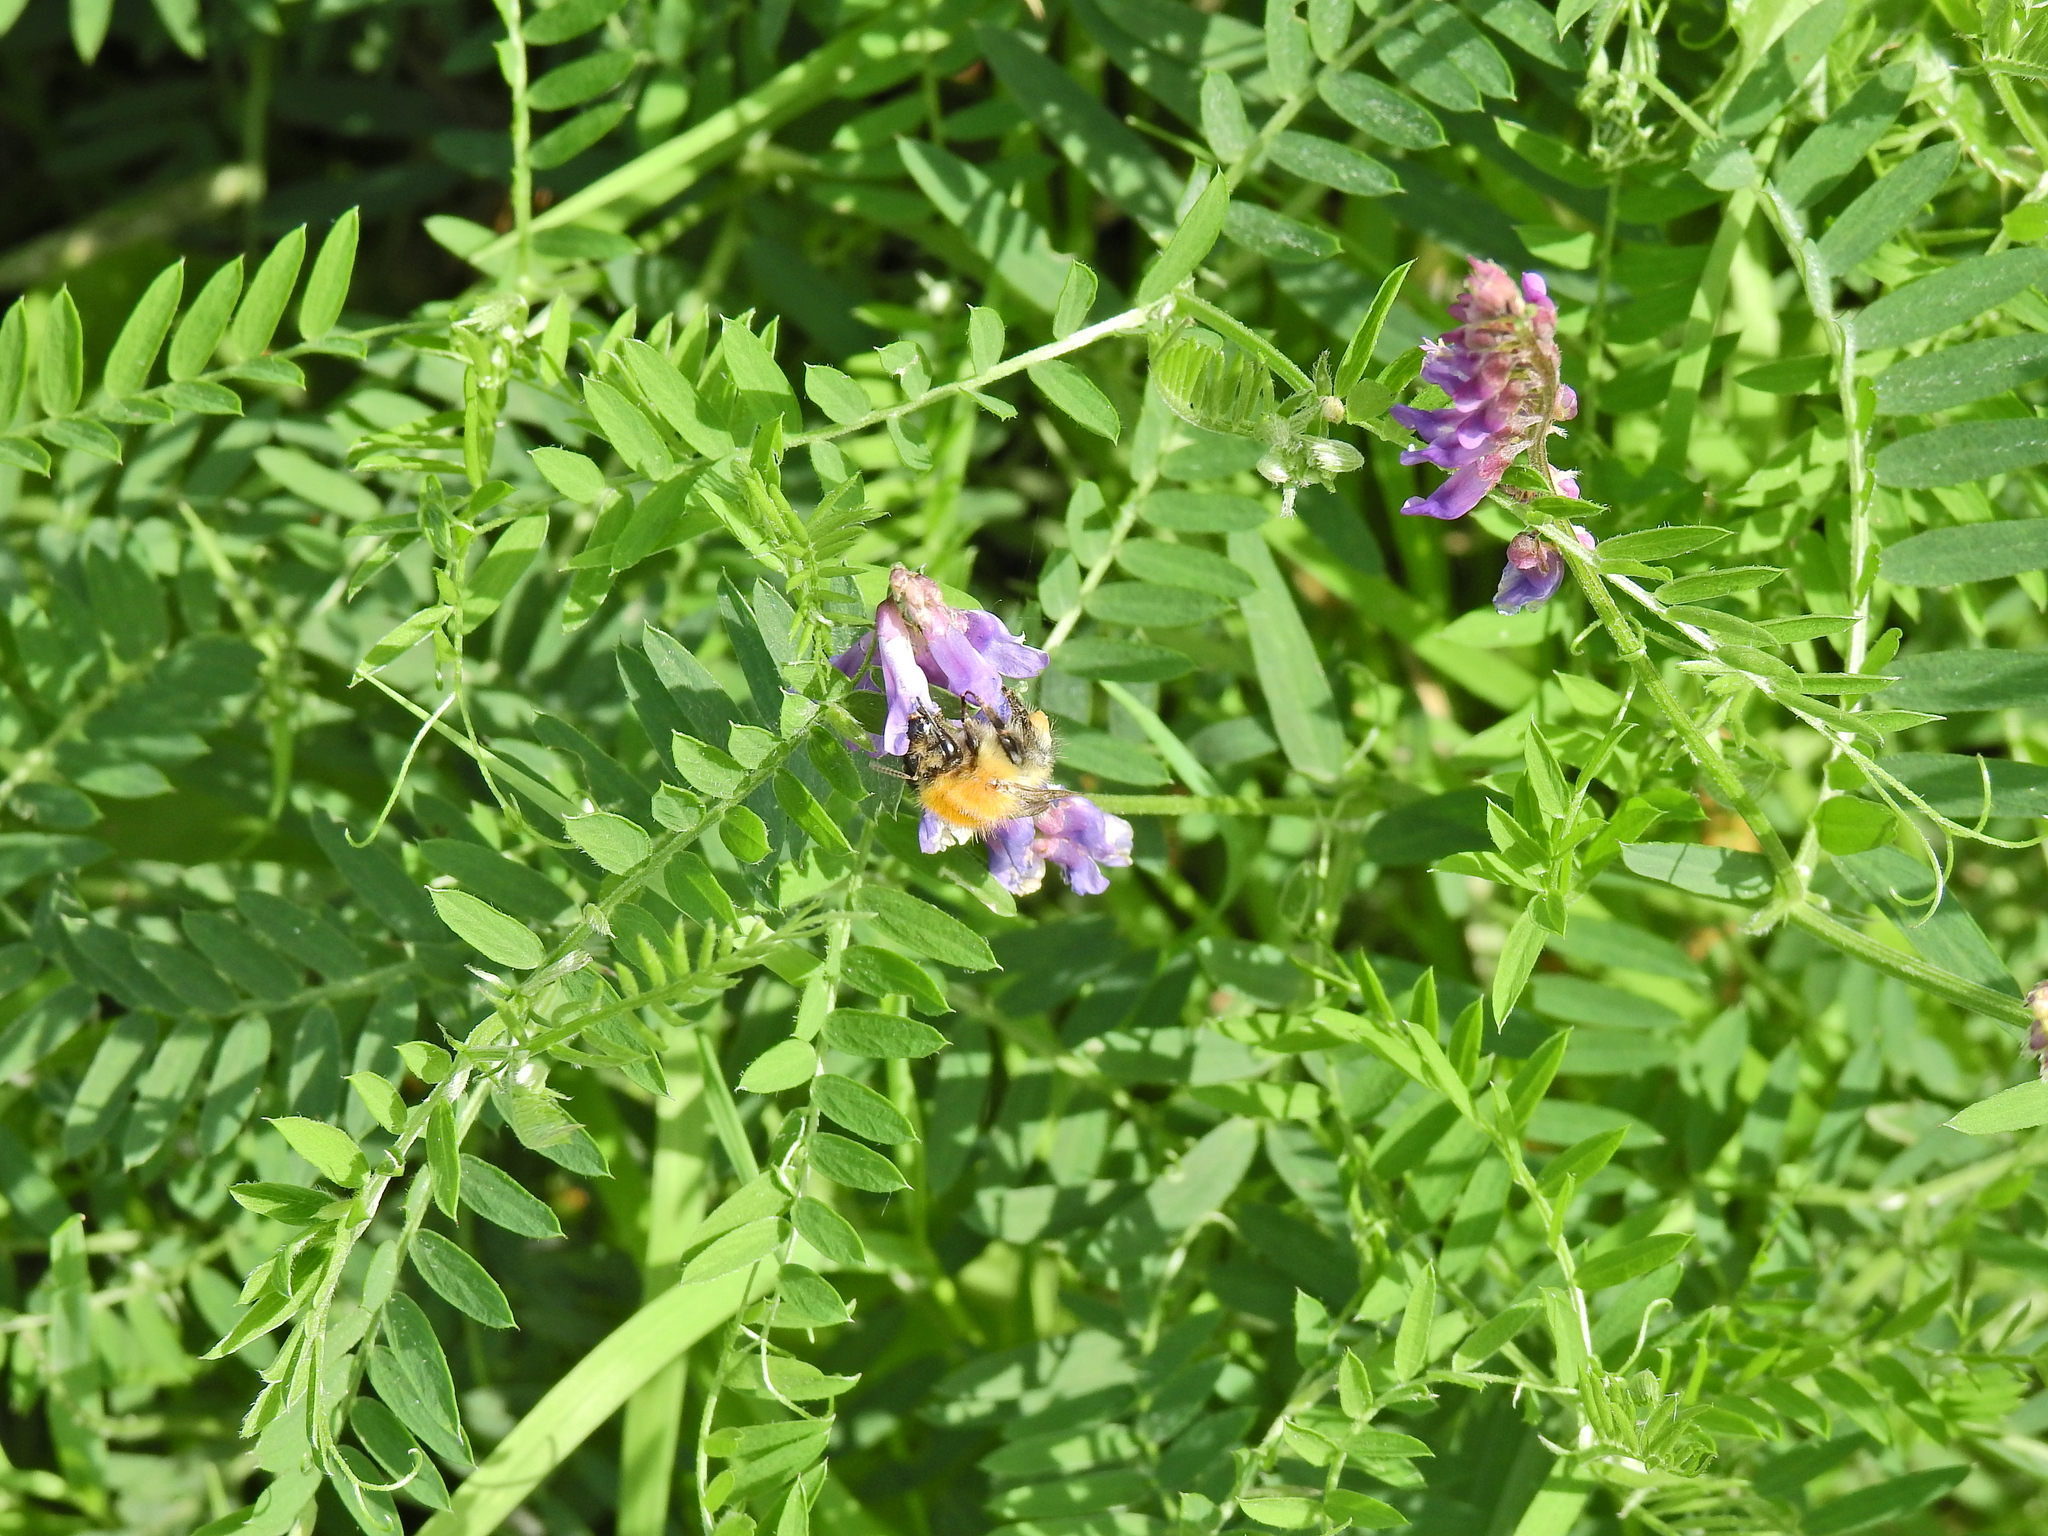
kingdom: Animalia
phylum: Arthropoda
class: Insecta
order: Hymenoptera
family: Apidae
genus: Bombus
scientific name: Bombus pascuorum
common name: Common carder bee
